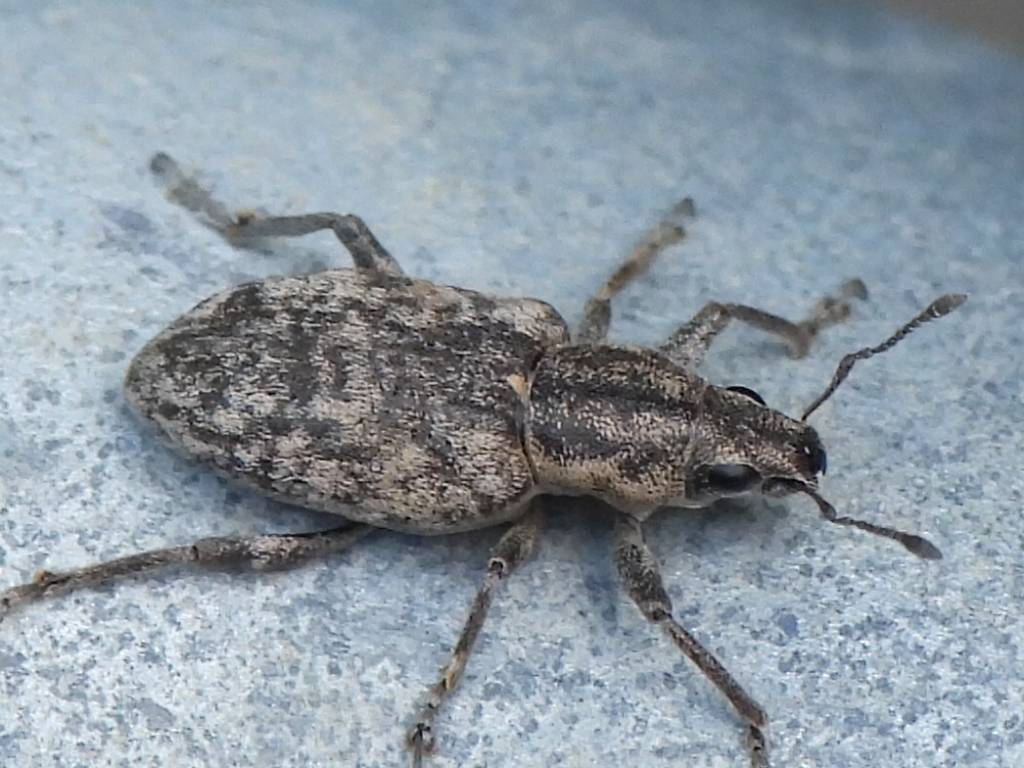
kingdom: Animalia
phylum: Arthropoda
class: Insecta
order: Coleoptera
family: Curculionidae
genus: Tanymecus
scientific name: Tanymecus confusus
